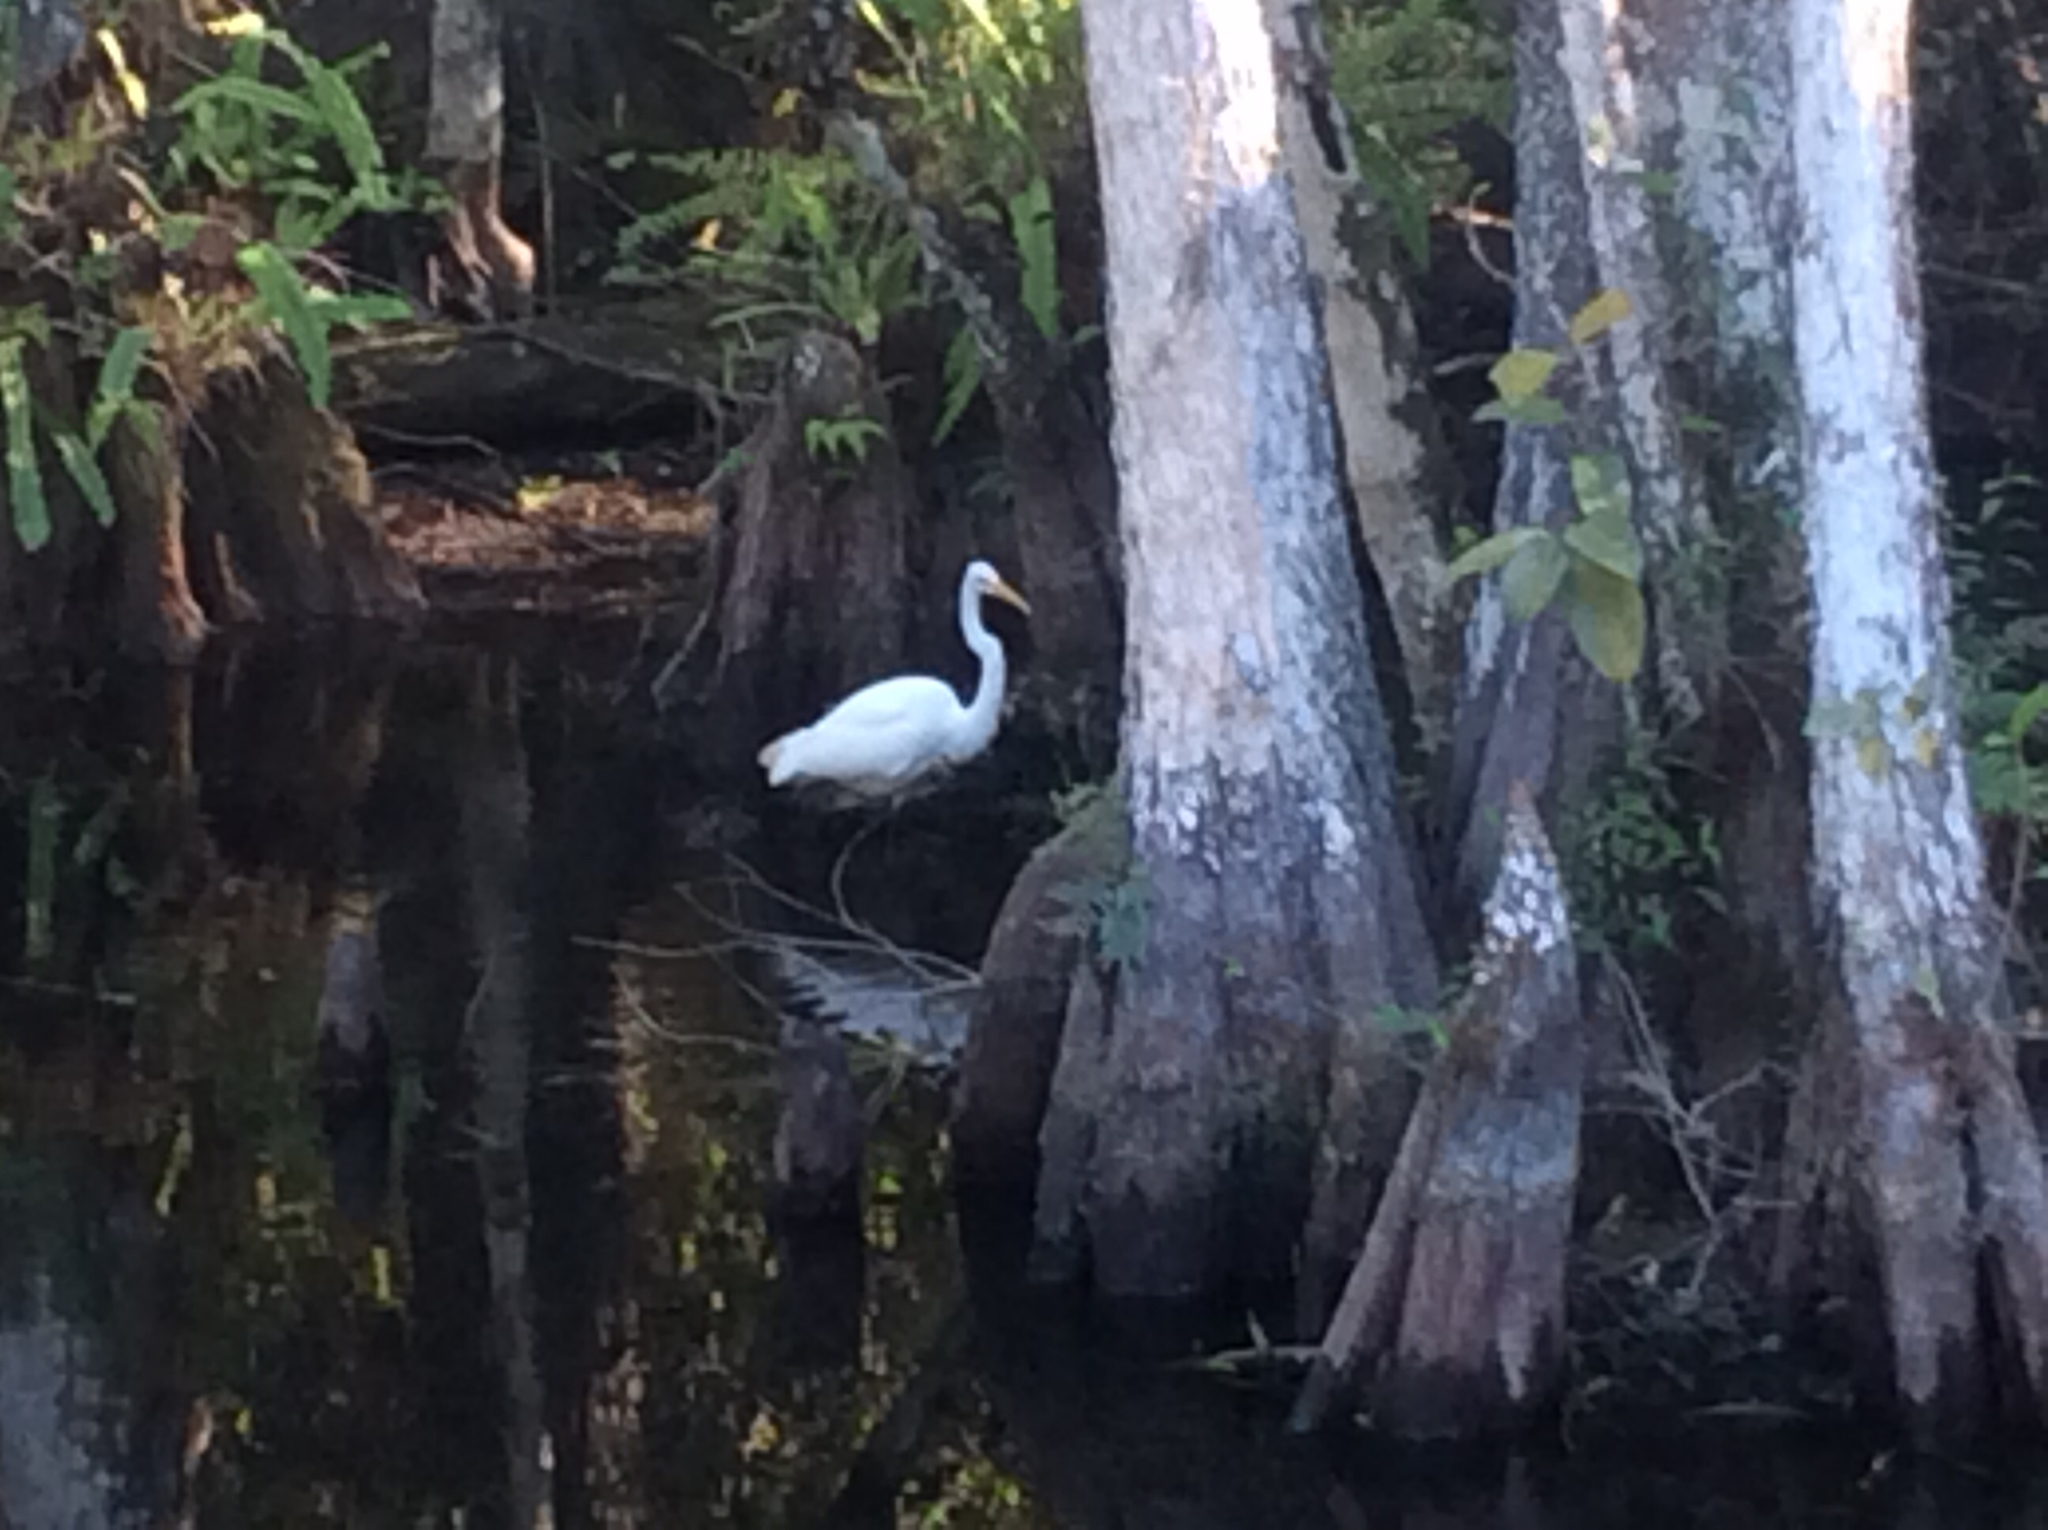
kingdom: Animalia
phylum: Chordata
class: Aves
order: Pelecaniformes
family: Ardeidae
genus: Ardea
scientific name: Ardea alba
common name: Great egret
